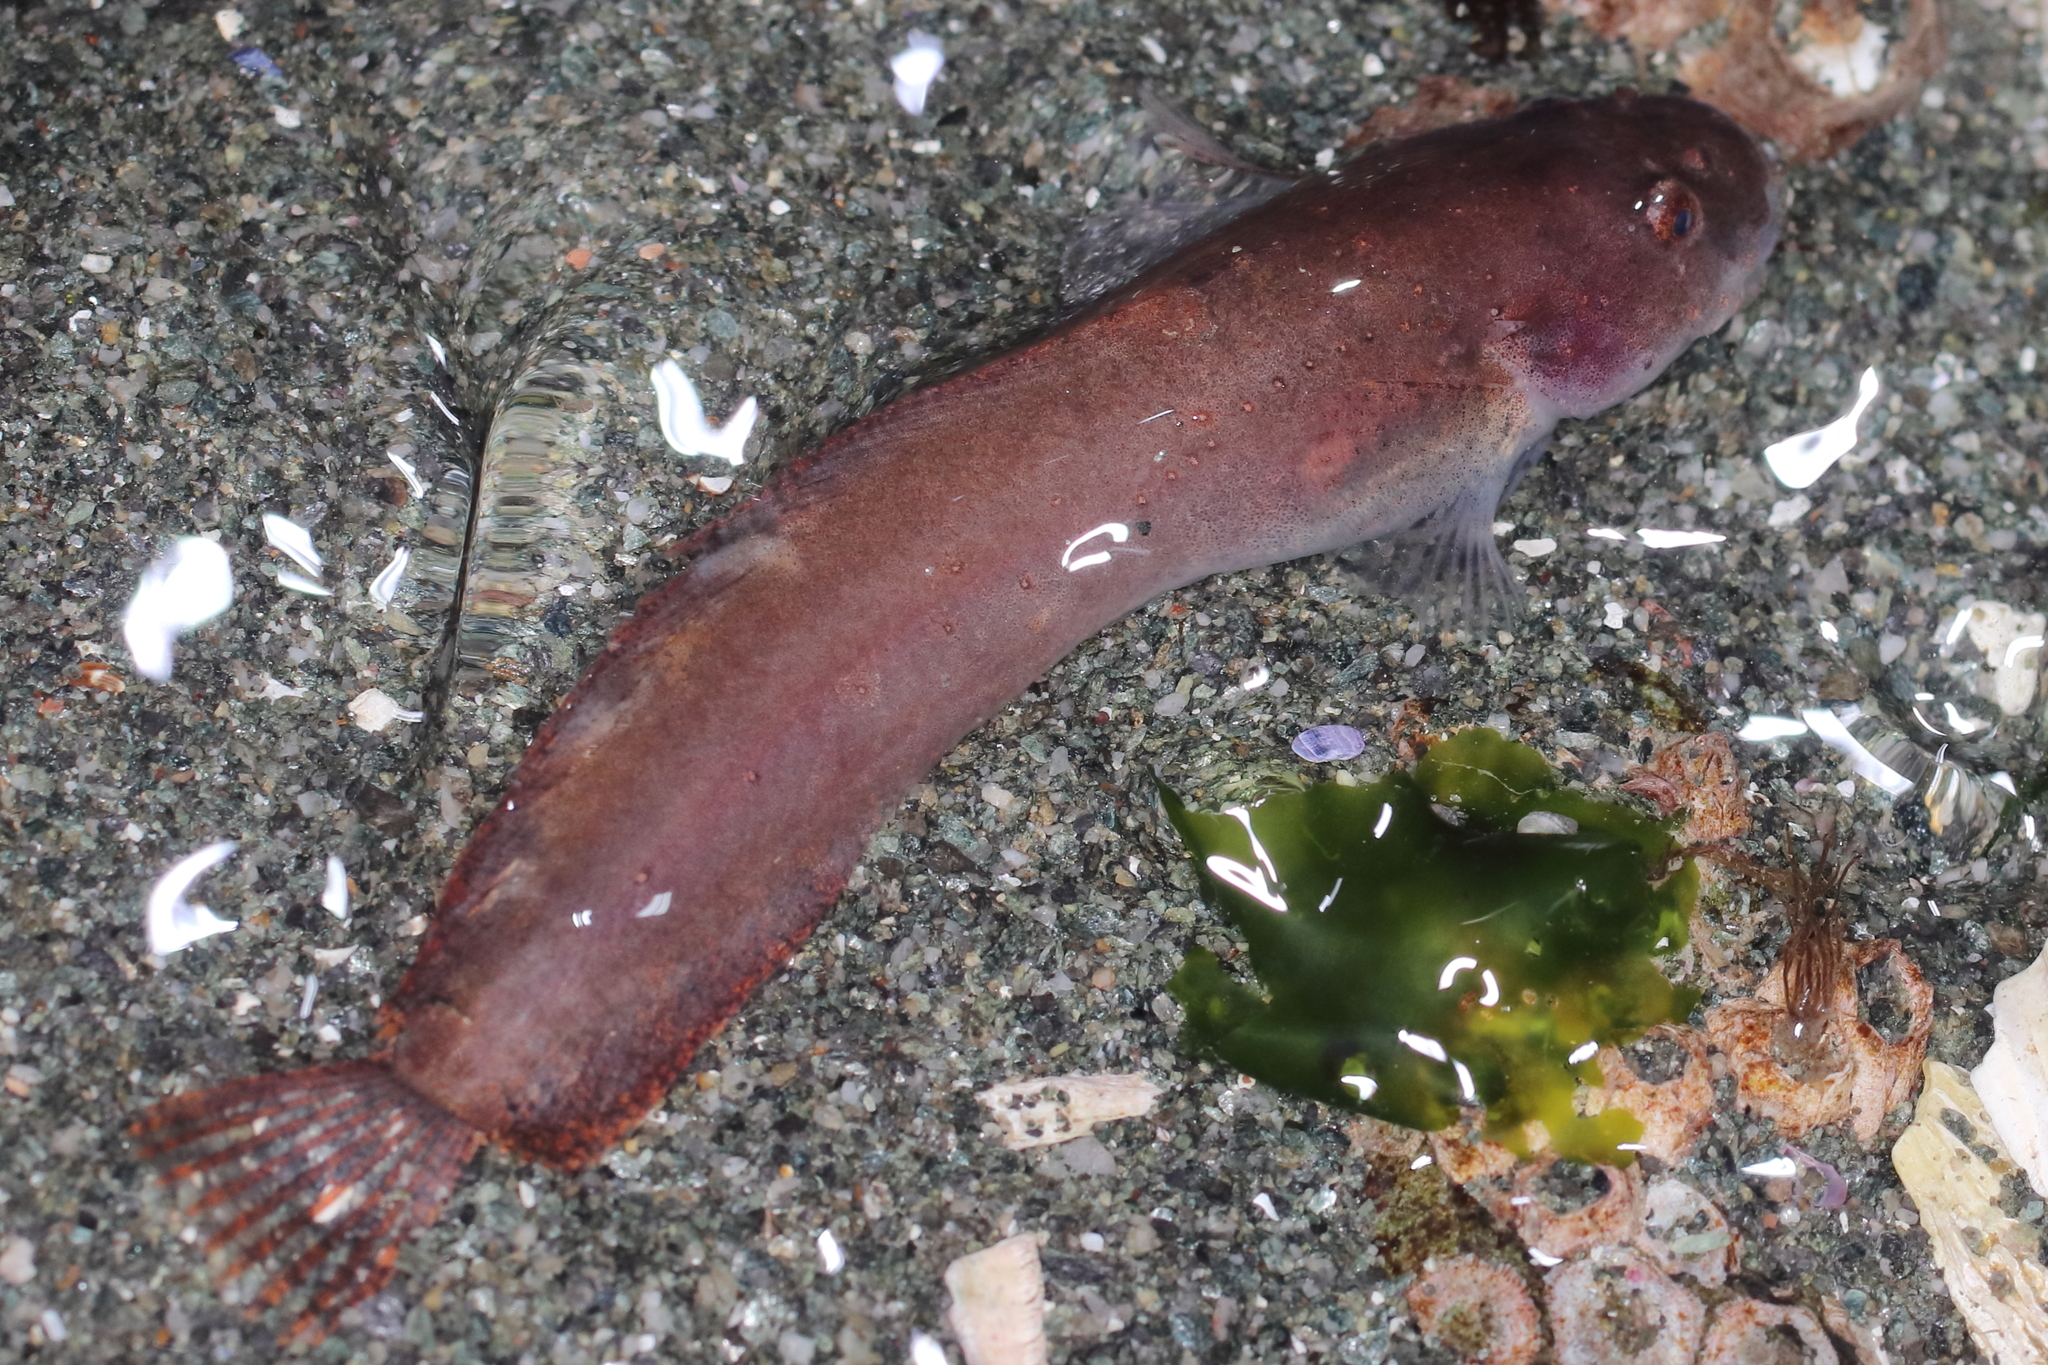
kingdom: Animalia
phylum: Chordata
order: Scorpaeniformes
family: Liparidae
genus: Liparis
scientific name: Liparis florae
